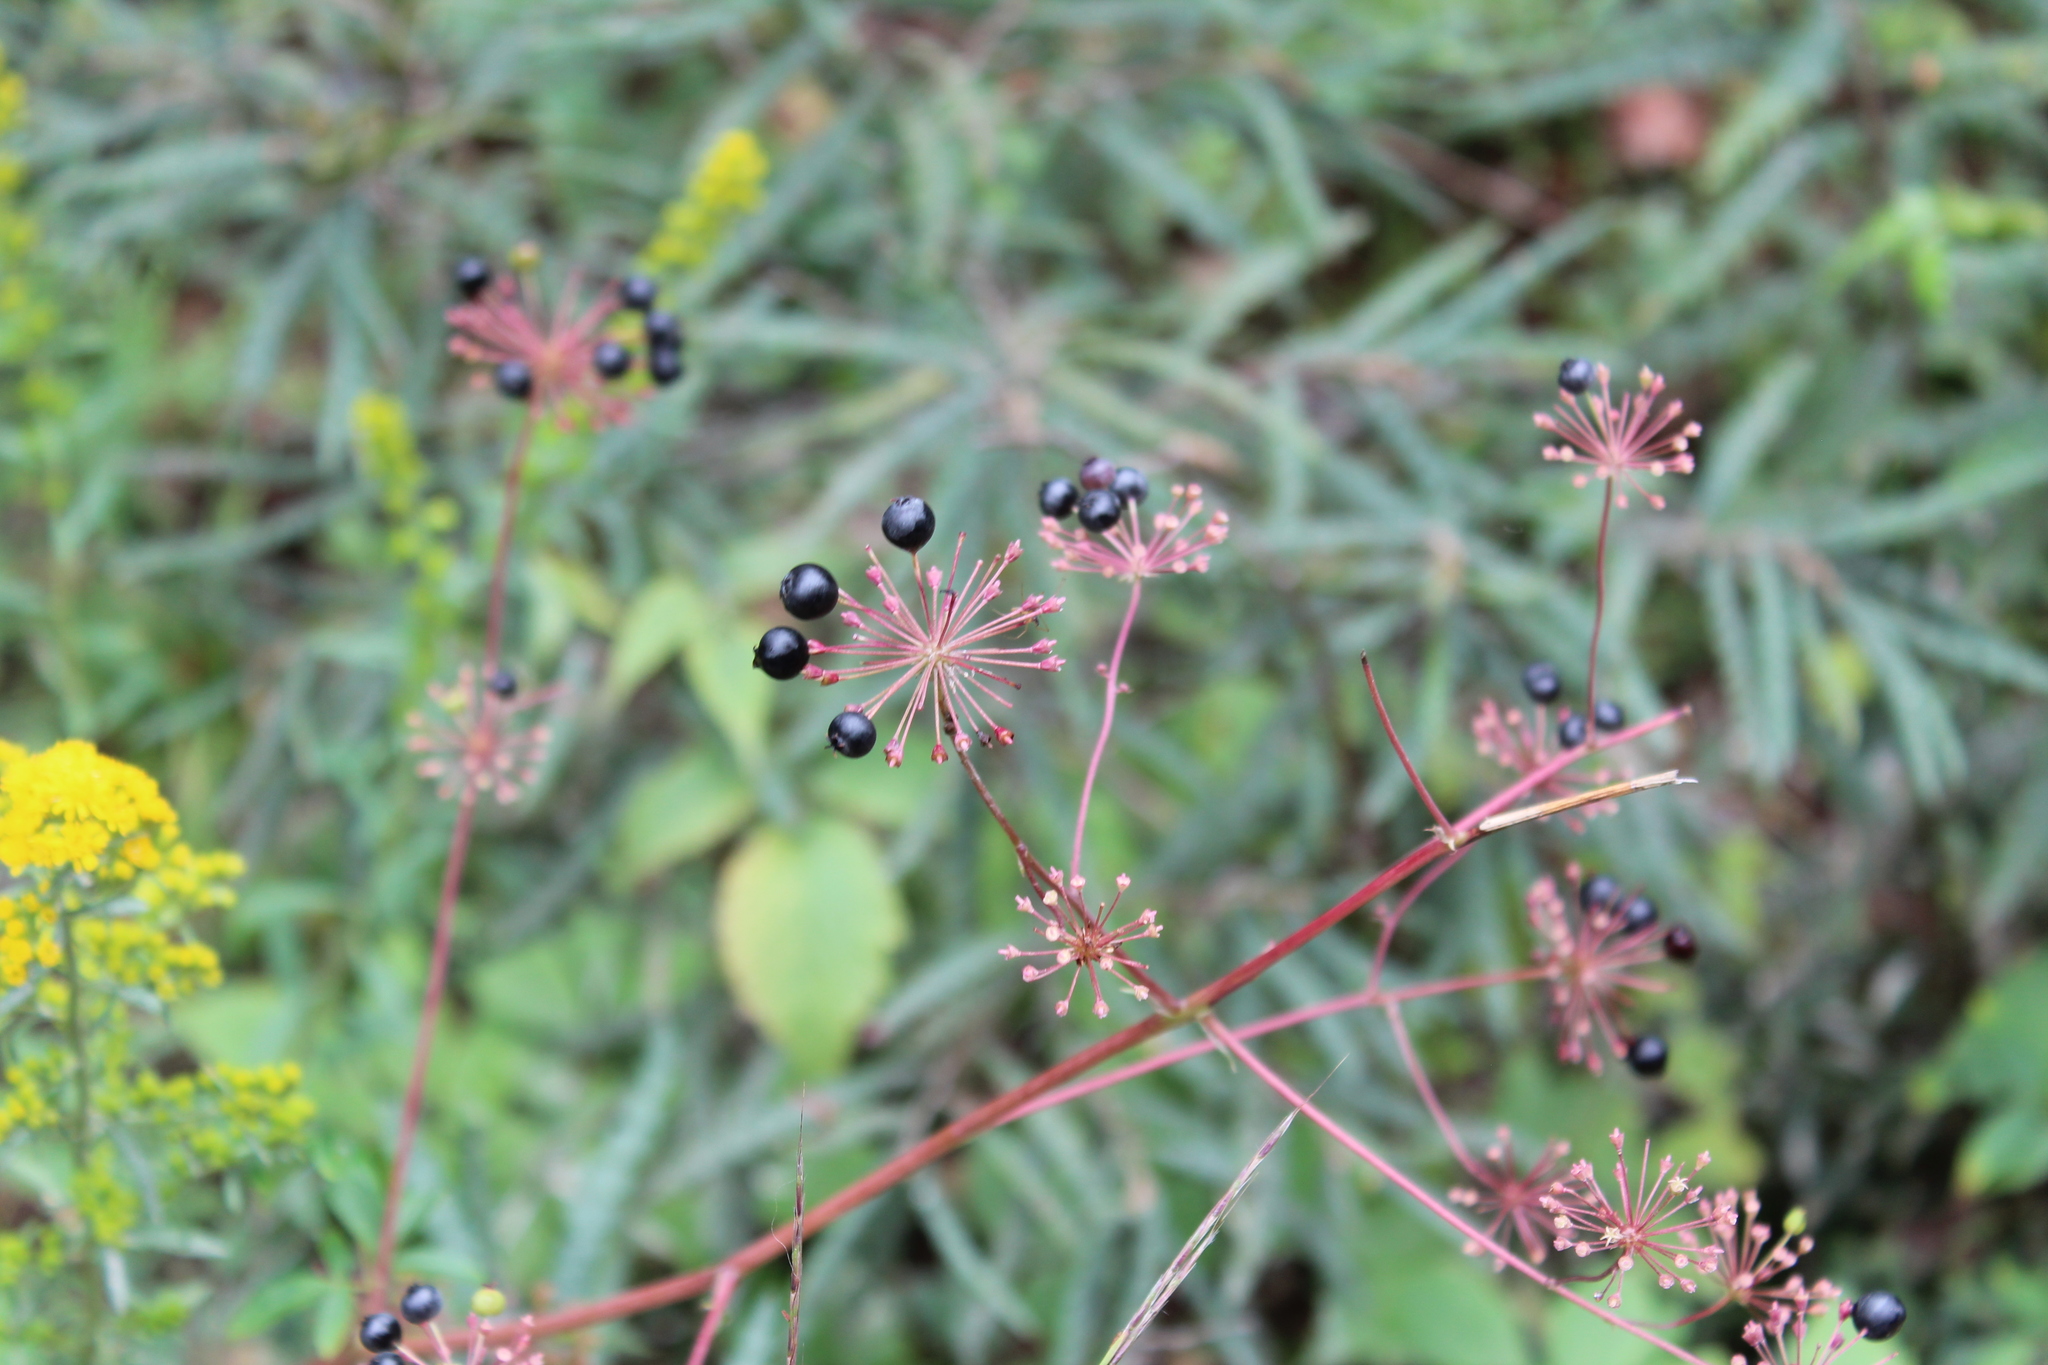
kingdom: Plantae
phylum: Tracheophyta
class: Magnoliopsida
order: Apiales
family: Araliaceae
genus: Aralia
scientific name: Aralia hispida
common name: Bristly sarsaparilla
